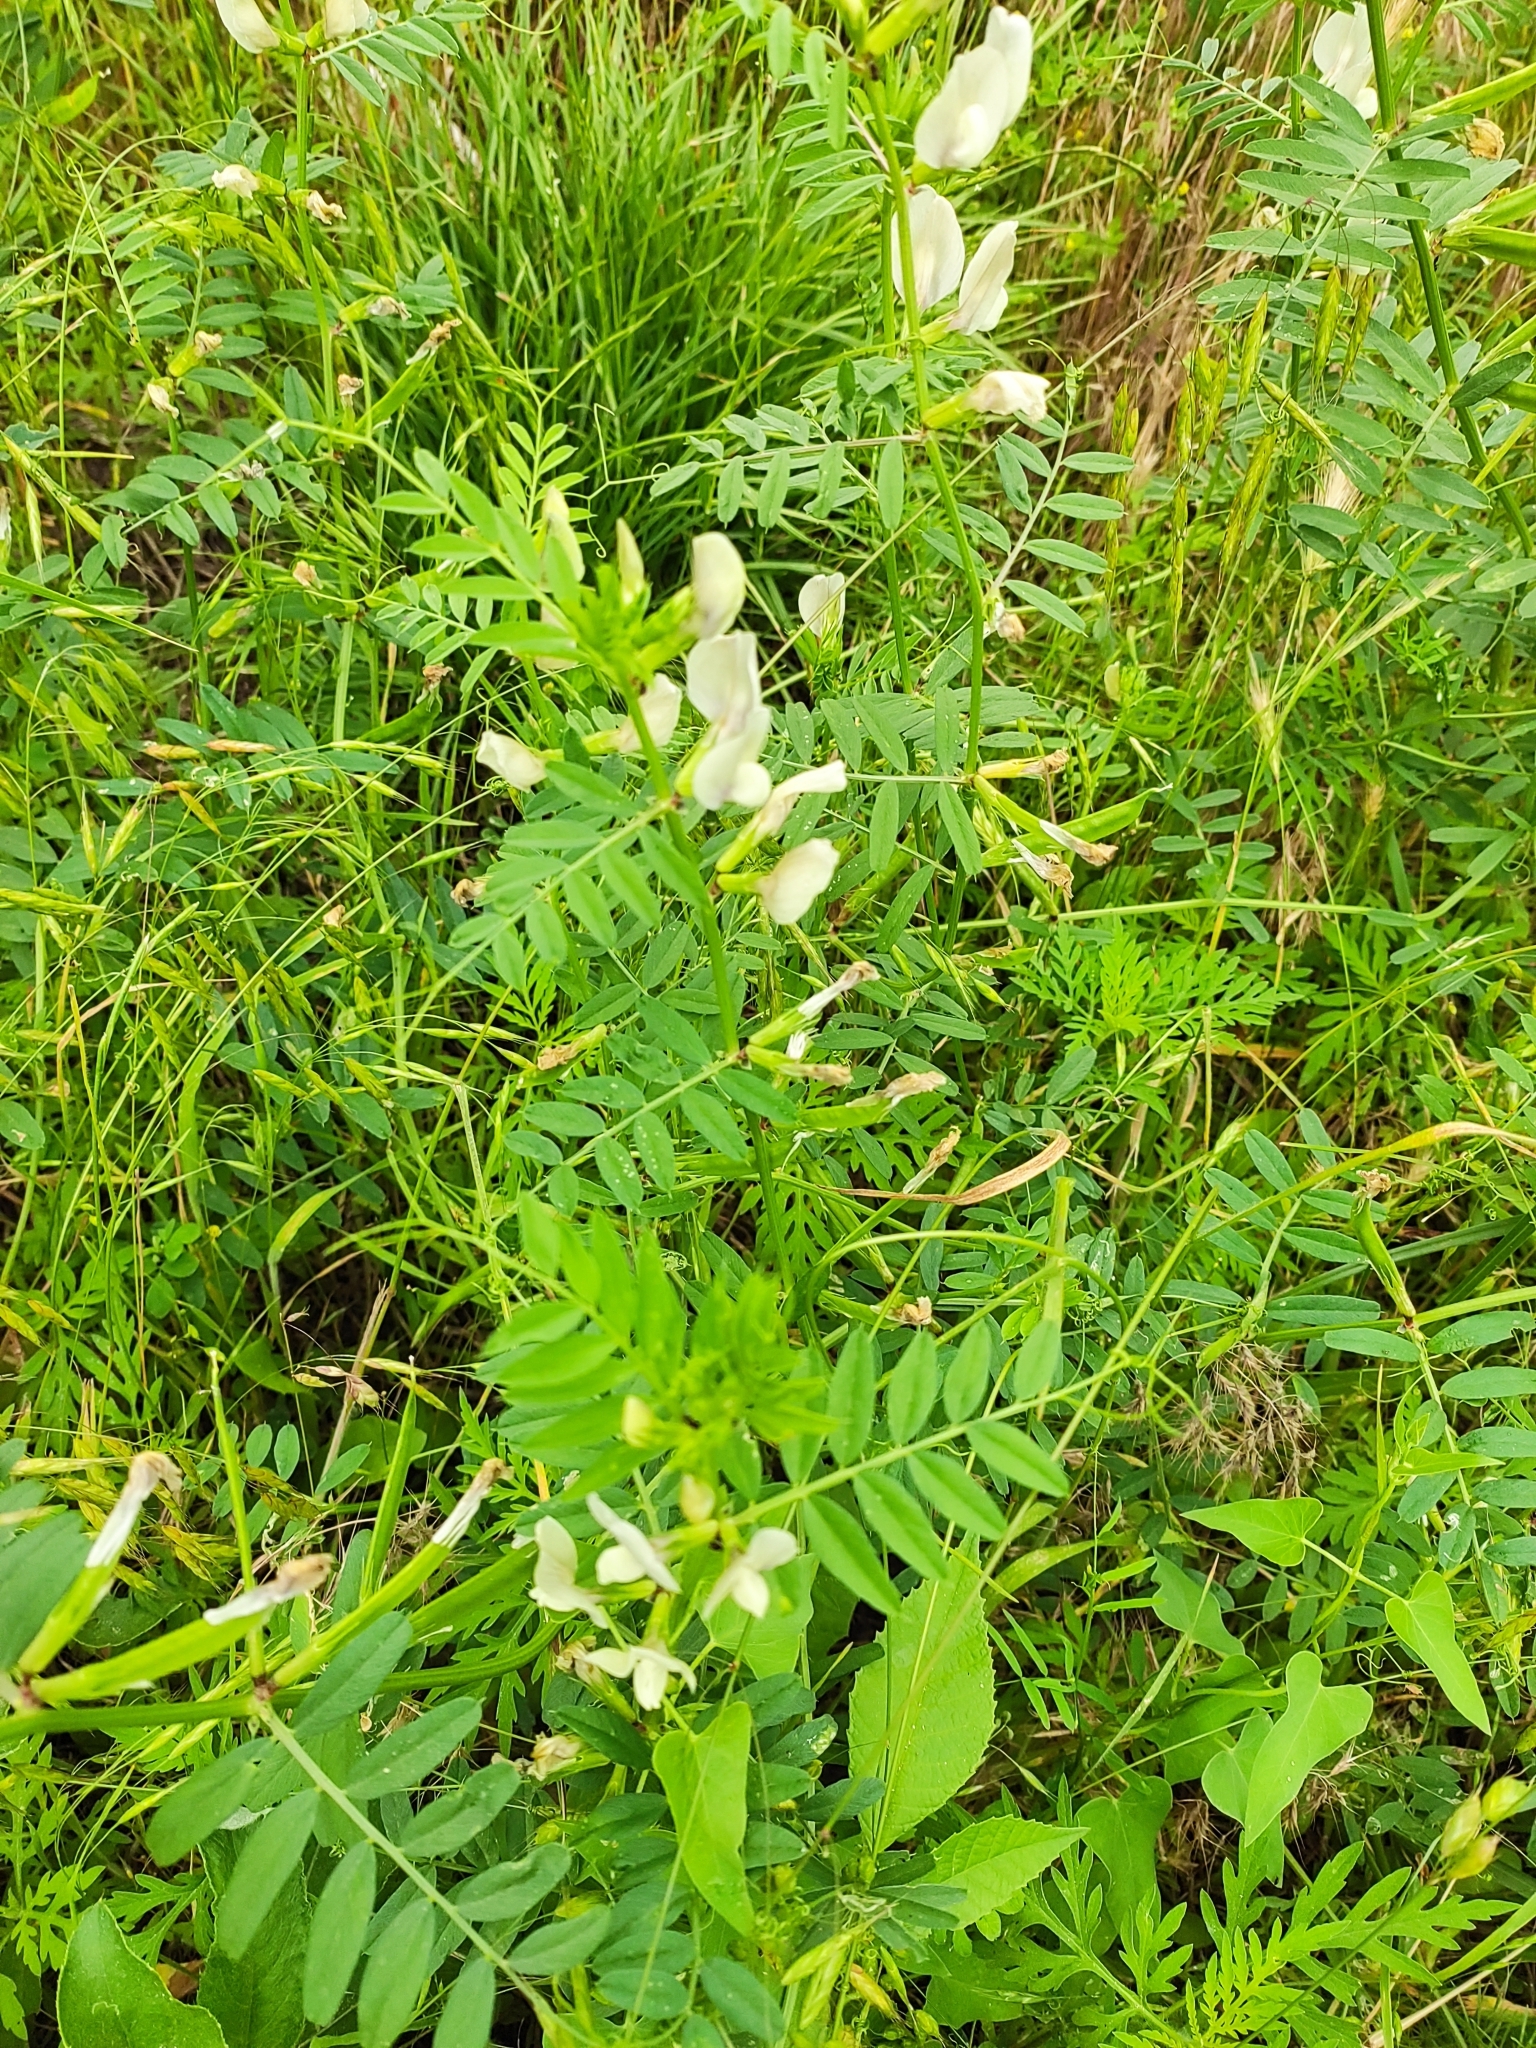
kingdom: Plantae
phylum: Tracheophyta
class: Magnoliopsida
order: Fabales
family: Fabaceae
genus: Vicia
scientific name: Vicia grandiflora
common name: Large yellow vetch
